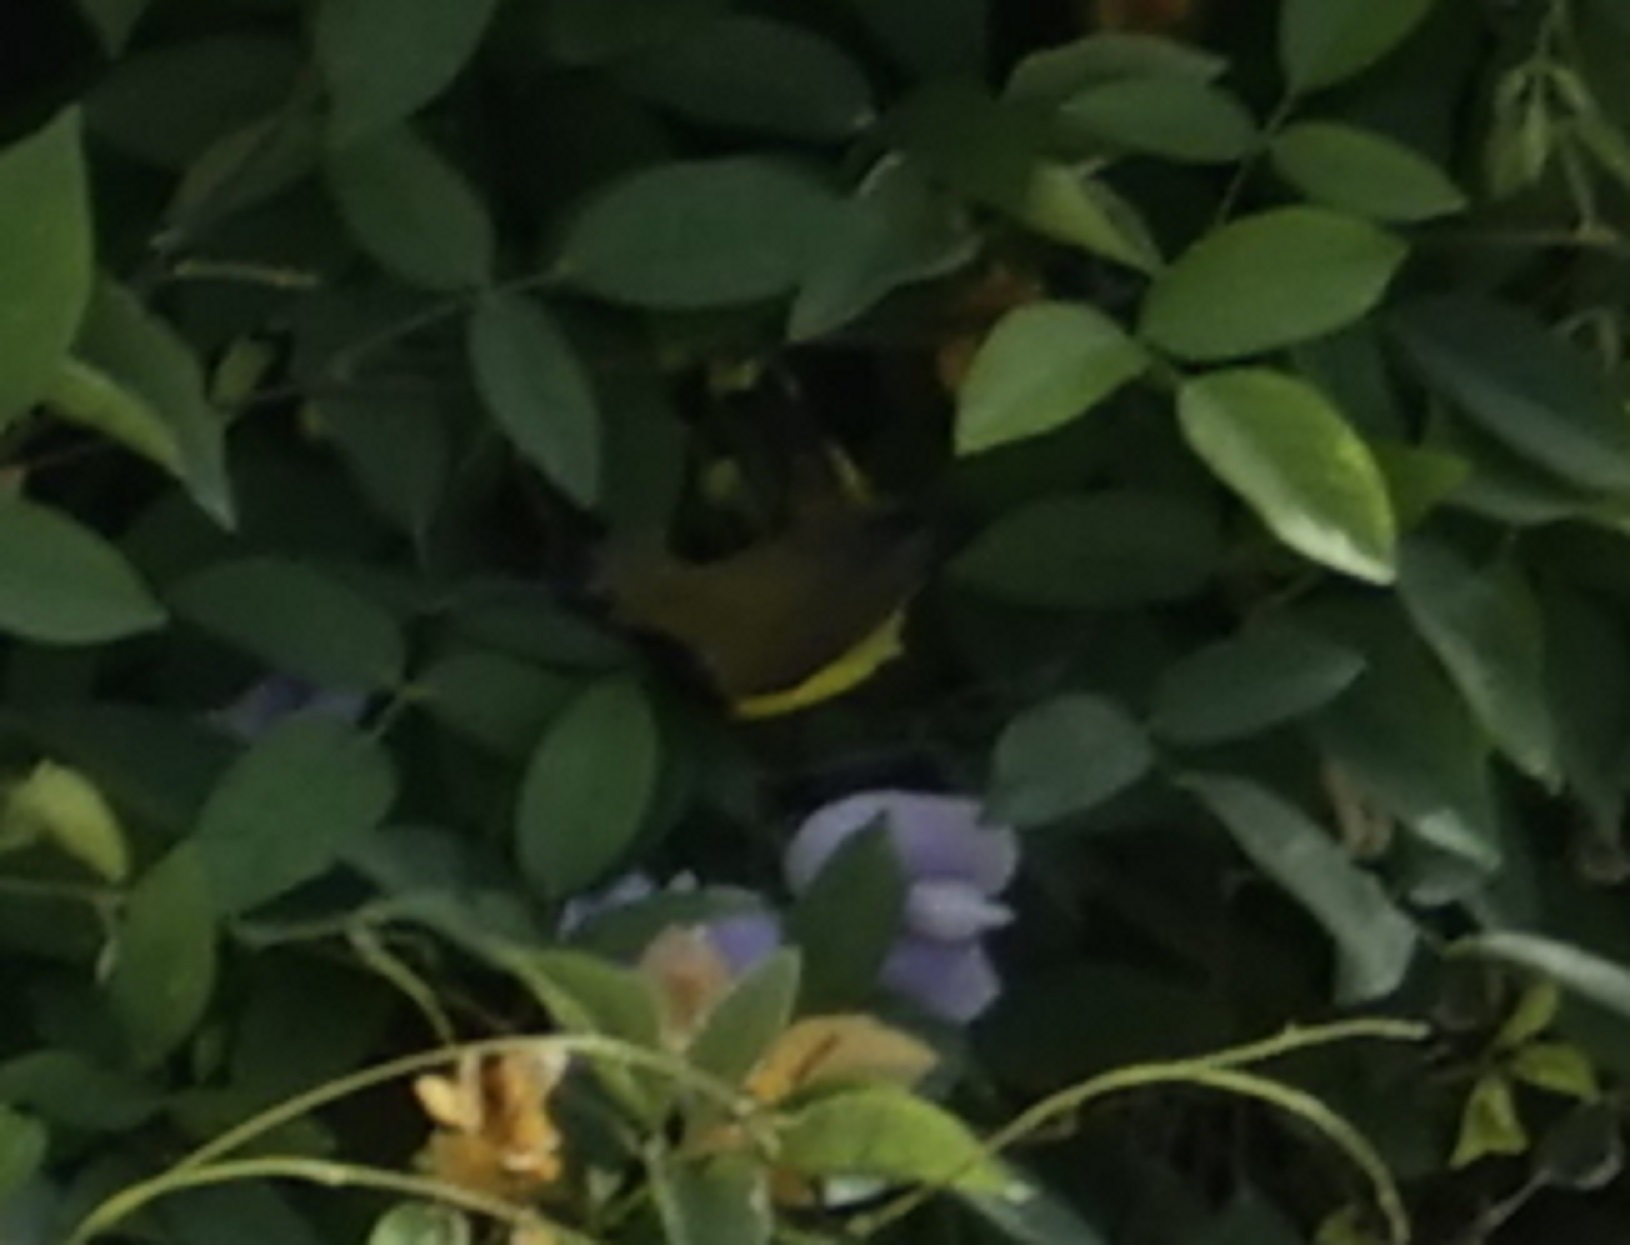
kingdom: Animalia
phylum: Chordata
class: Aves
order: Passeriformes
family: Nectariniidae
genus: Cinnyris
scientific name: Cinnyris
